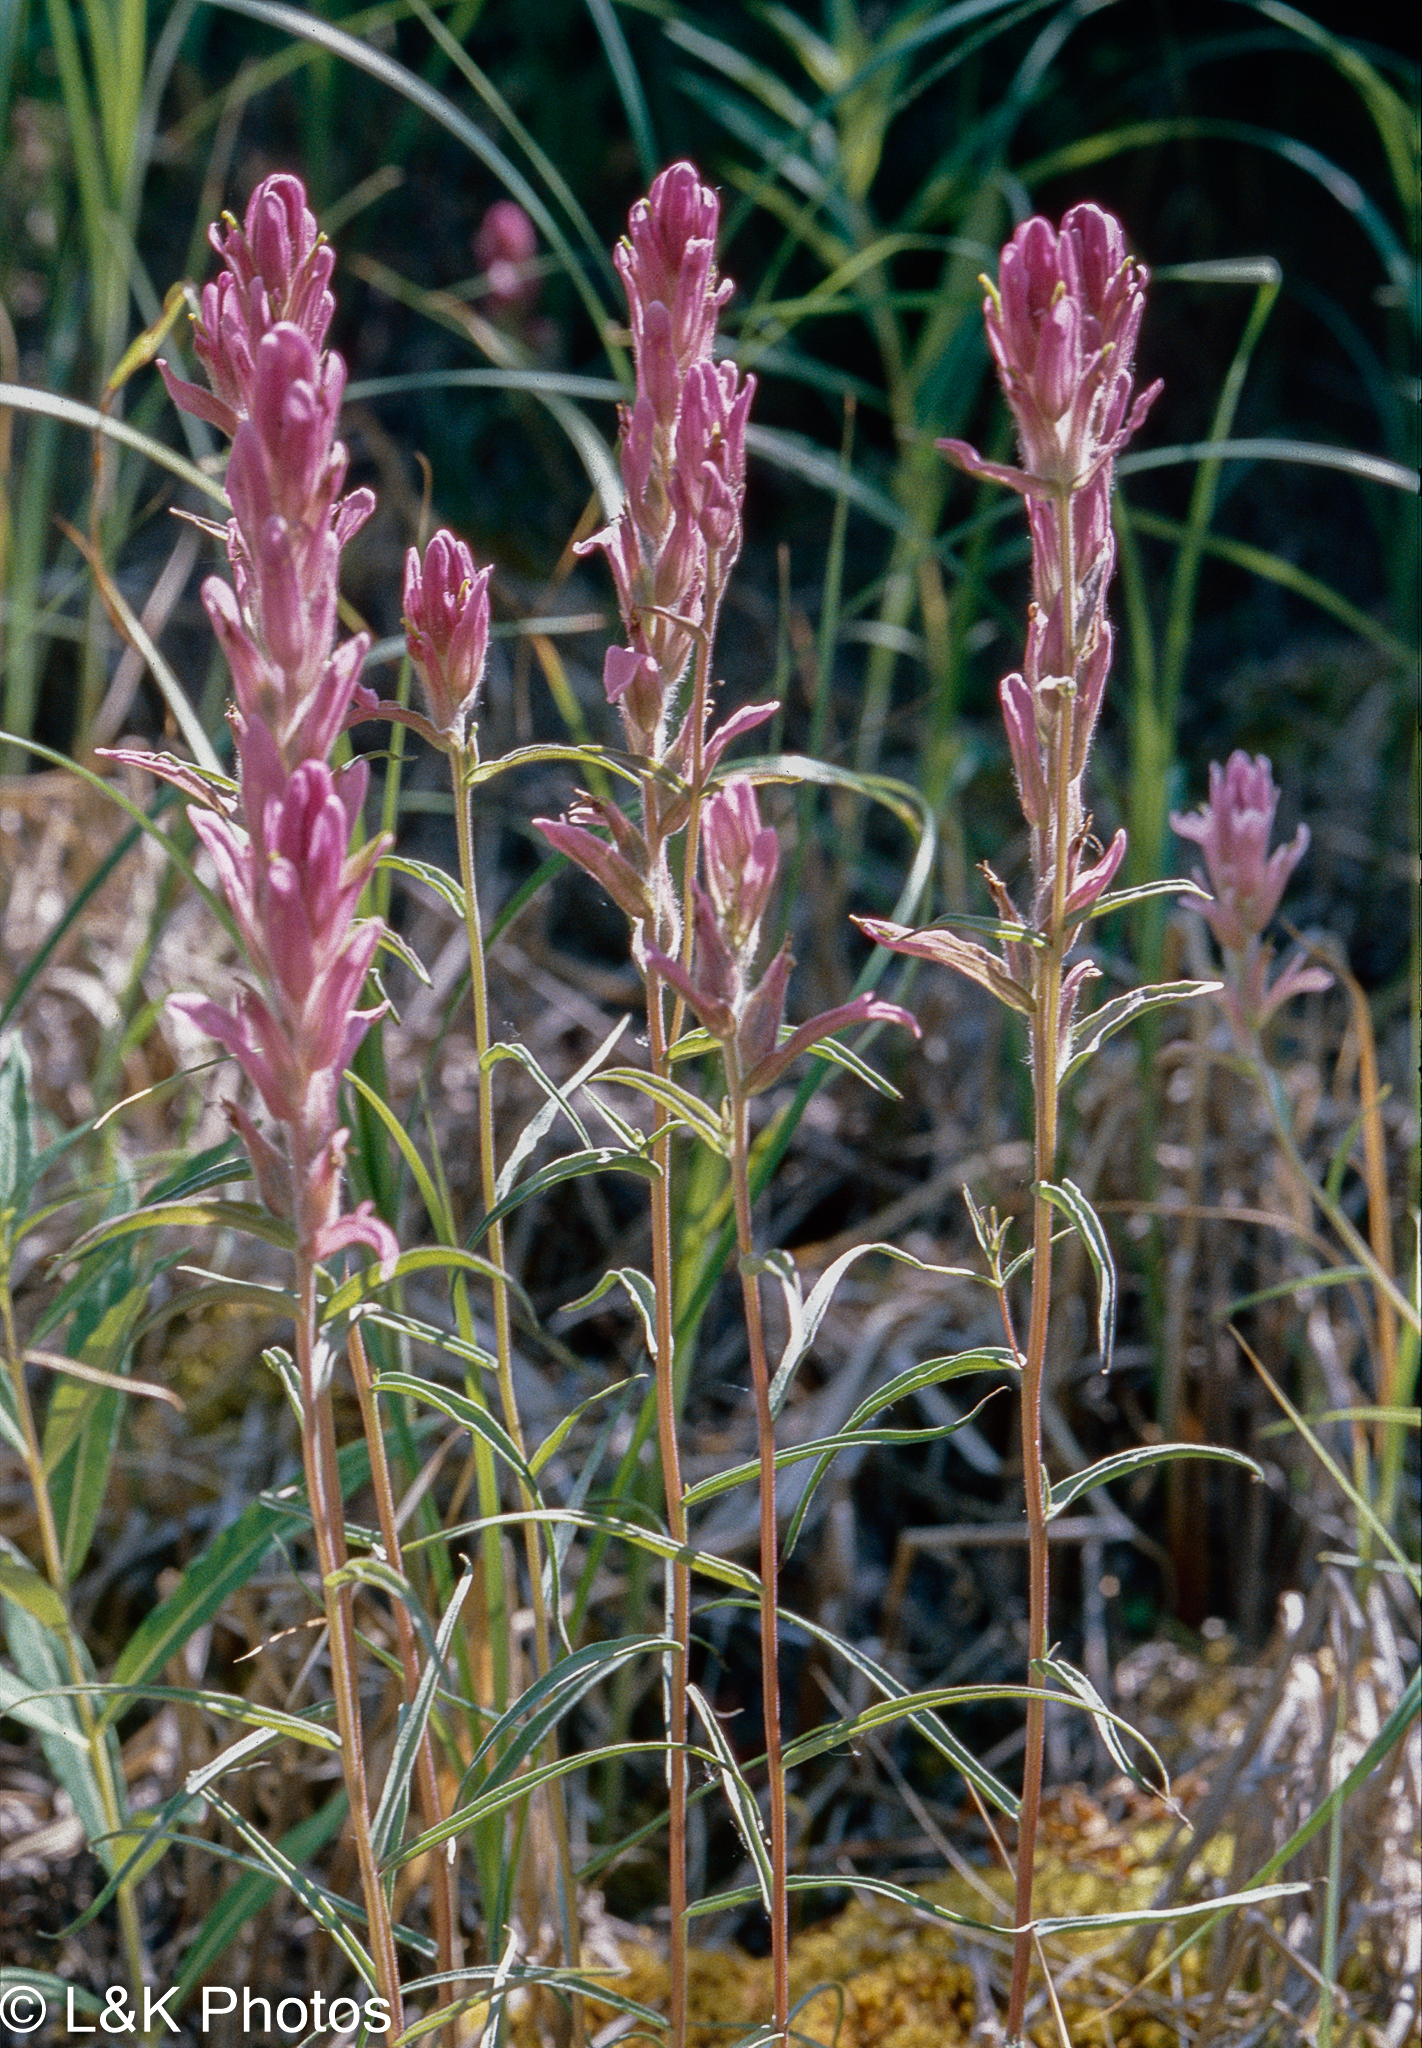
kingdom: Plantae
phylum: Tracheophyta
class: Magnoliopsida
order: Lamiales
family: Orobanchaceae
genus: Castilleja
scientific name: Castilleja raupii
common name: Raup's paintbrush
